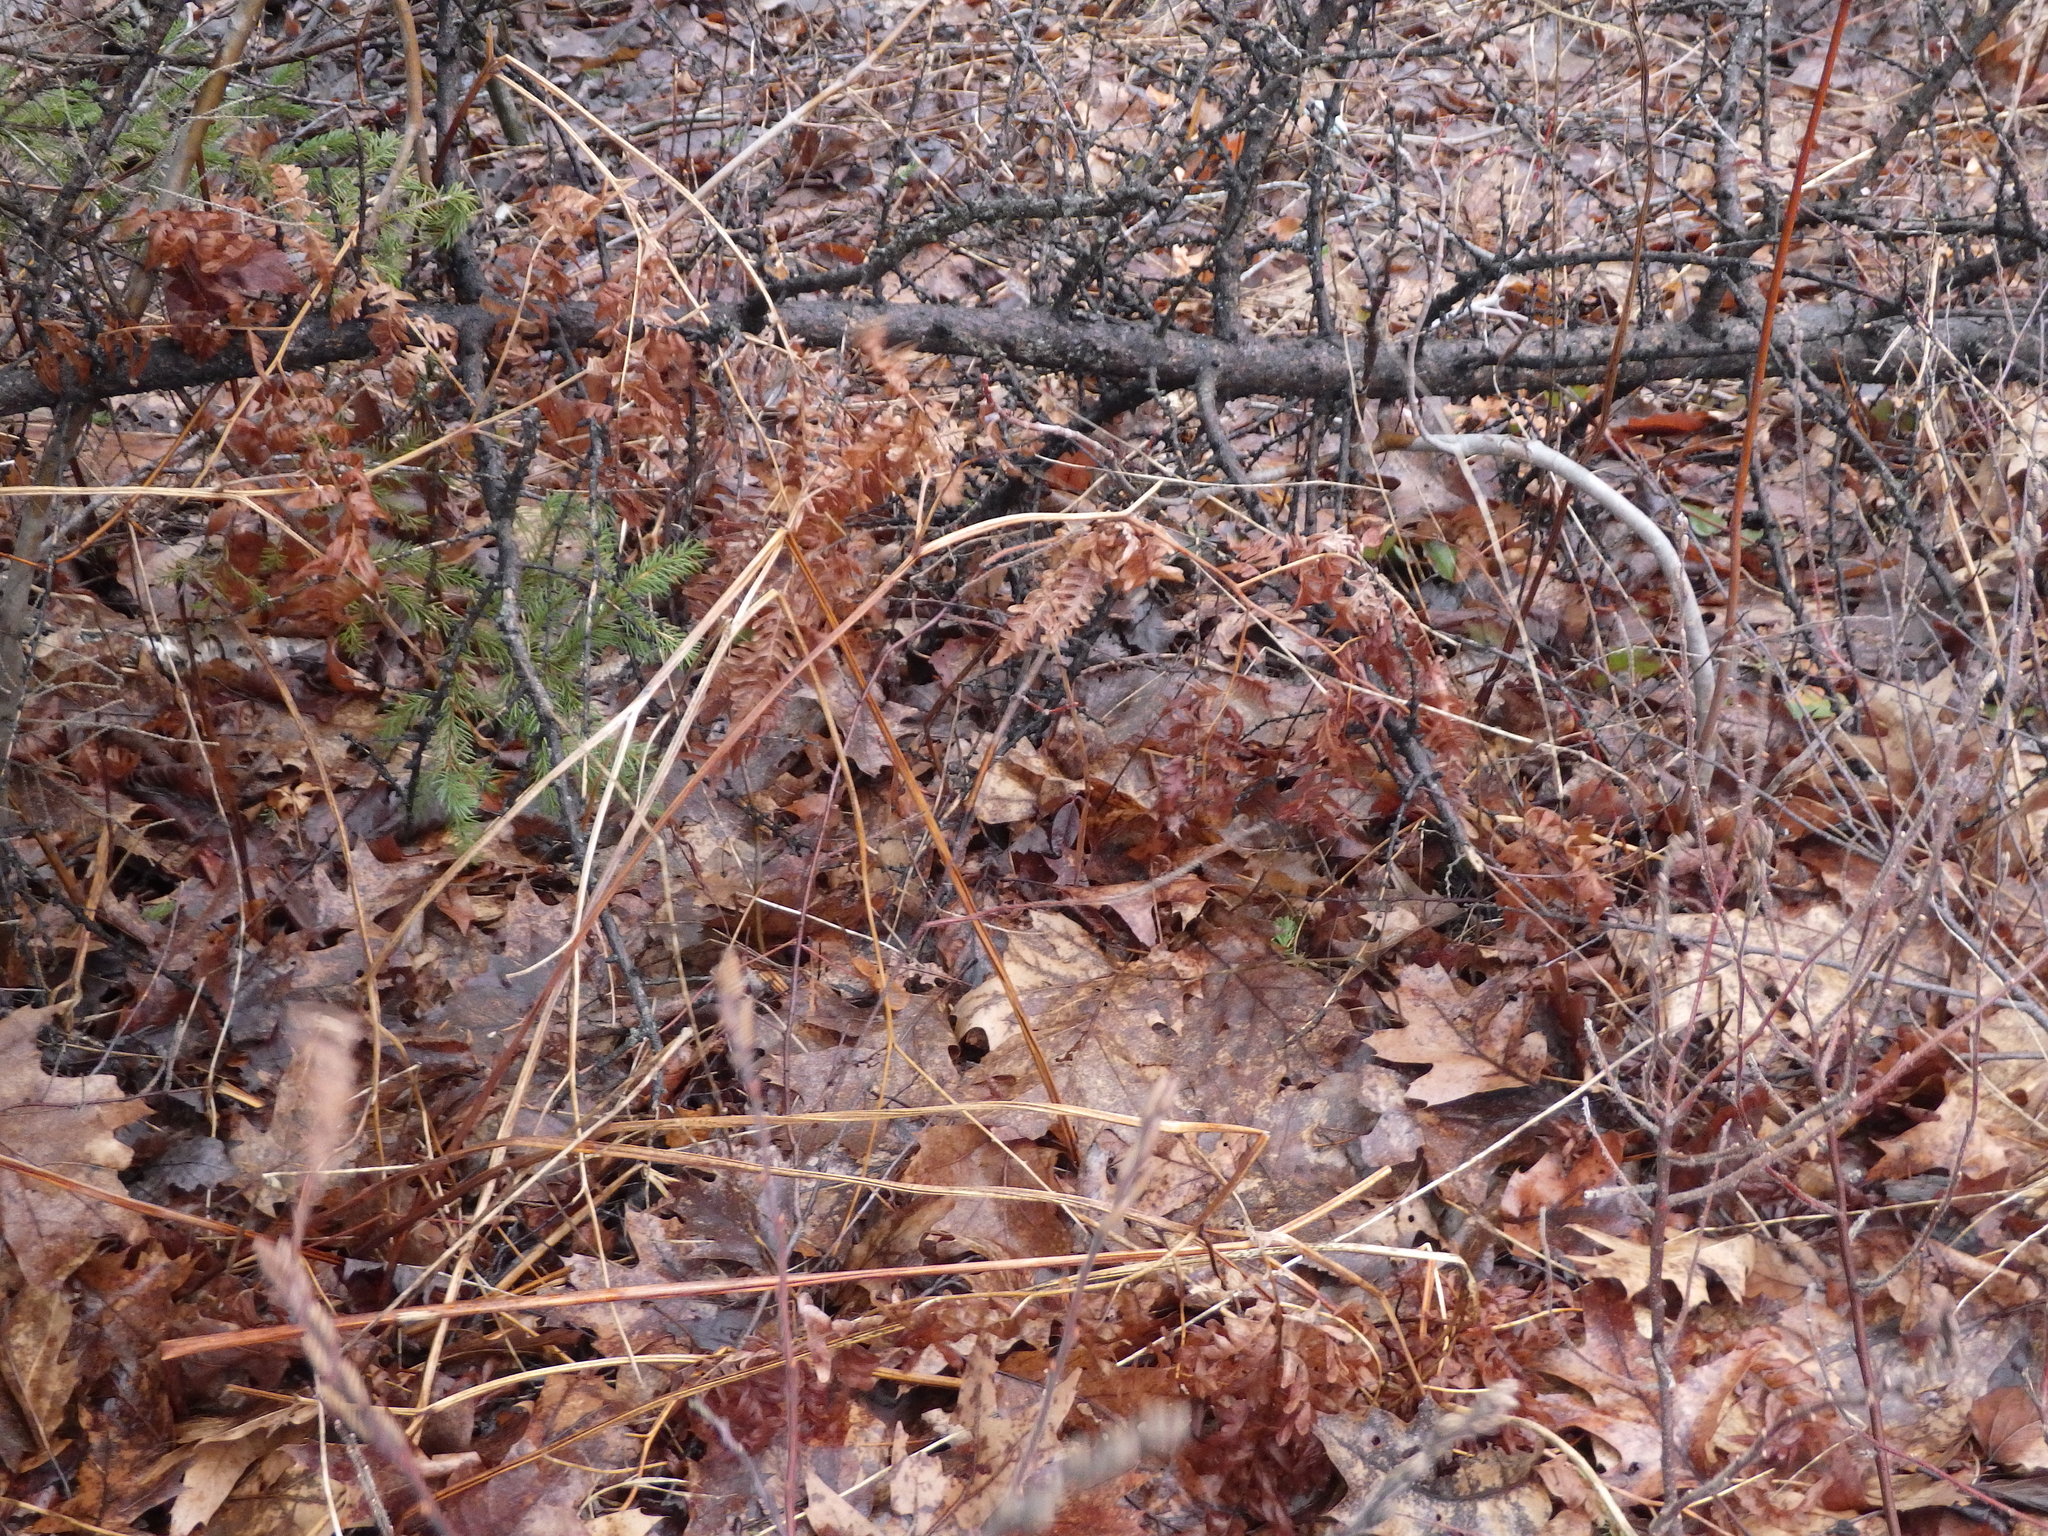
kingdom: Plantae
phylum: Tracheophyta
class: Polypodiopsida
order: Polypodiales
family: Dennstaedtiaceae
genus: Pteridium
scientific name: Pteridium aquilinum
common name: Bracken
